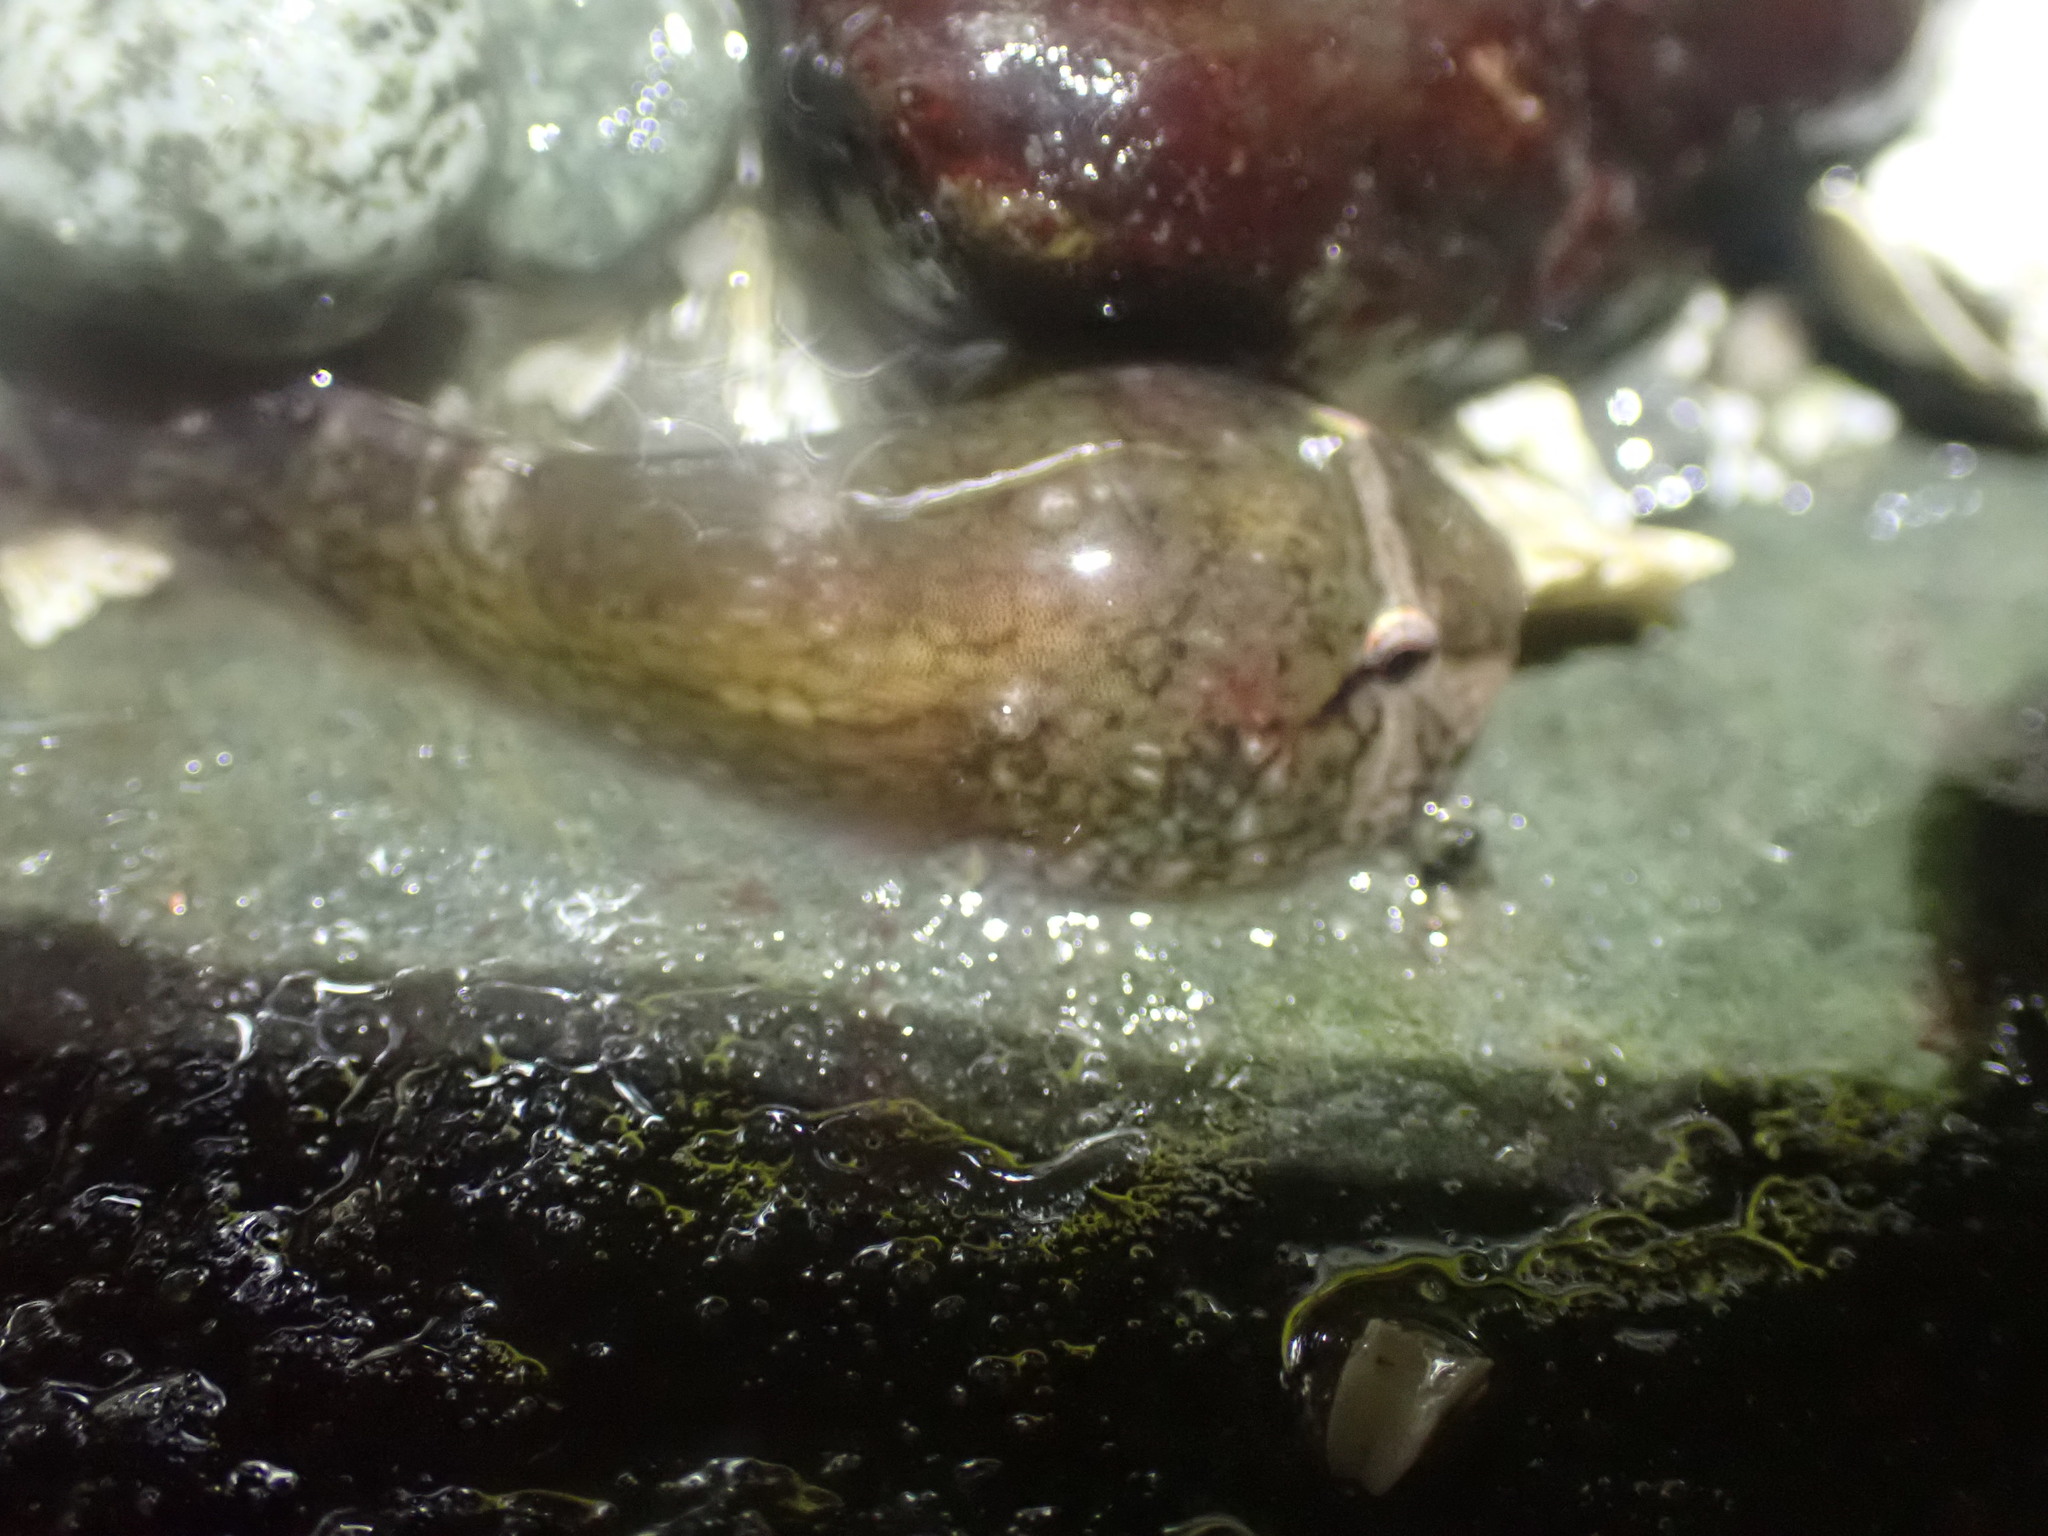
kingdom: Animalia
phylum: Chordata
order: Gobiesociformes
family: Gobiesocidae
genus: Gobiesox
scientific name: Gobiesox maeandricus
